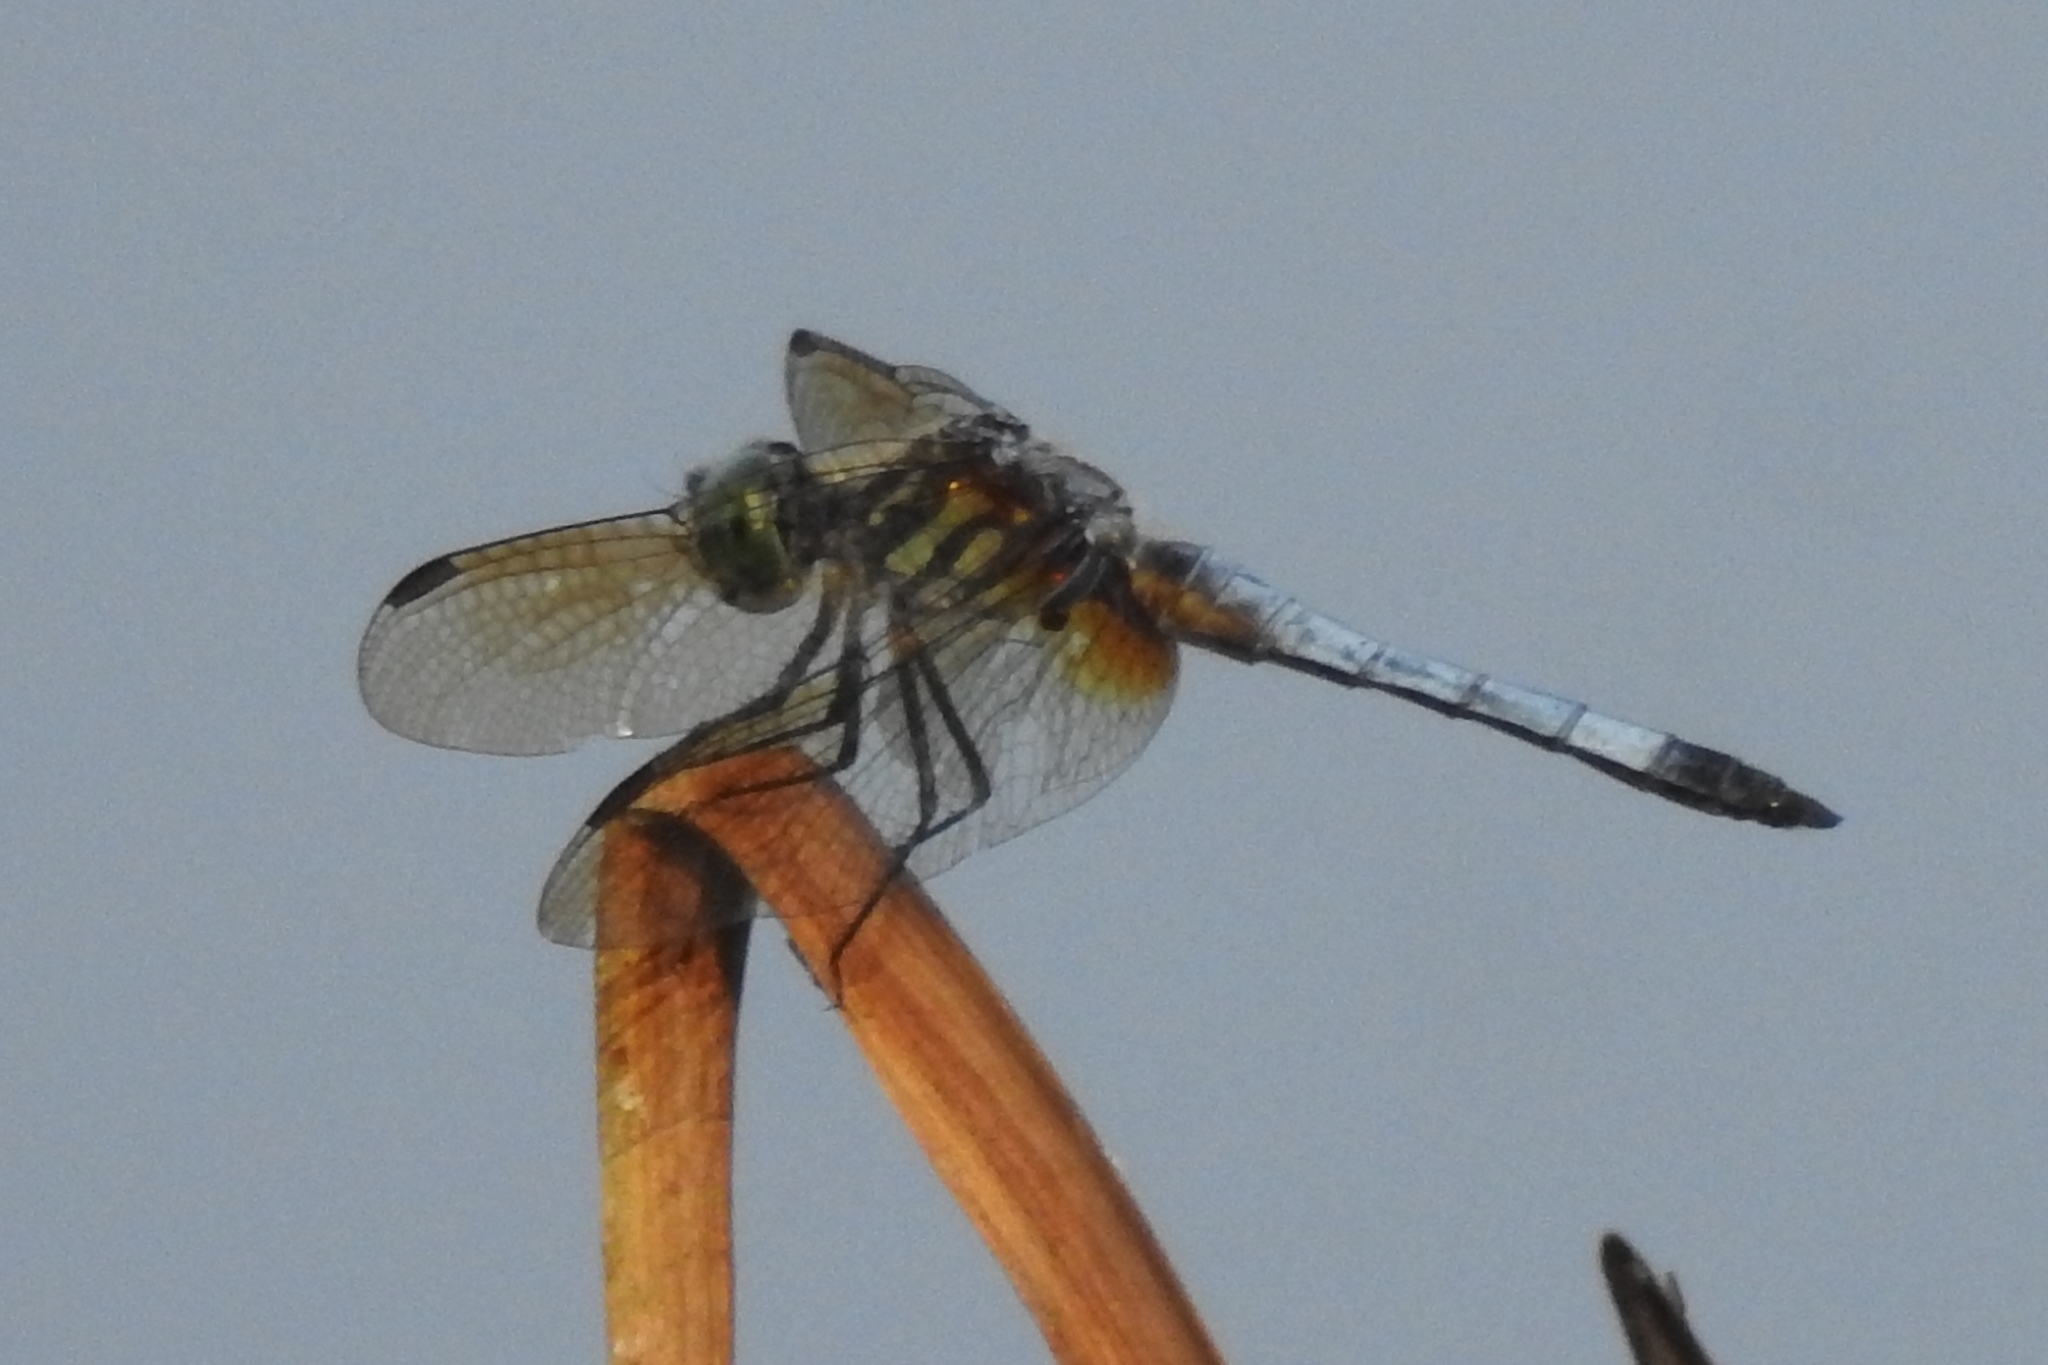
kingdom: Animalia
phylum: Arthropoda
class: Insecta
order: Odonata
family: Libellulidae
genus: Pachydiplax
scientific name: Pachydiplax longipennis
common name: Blue dasher
